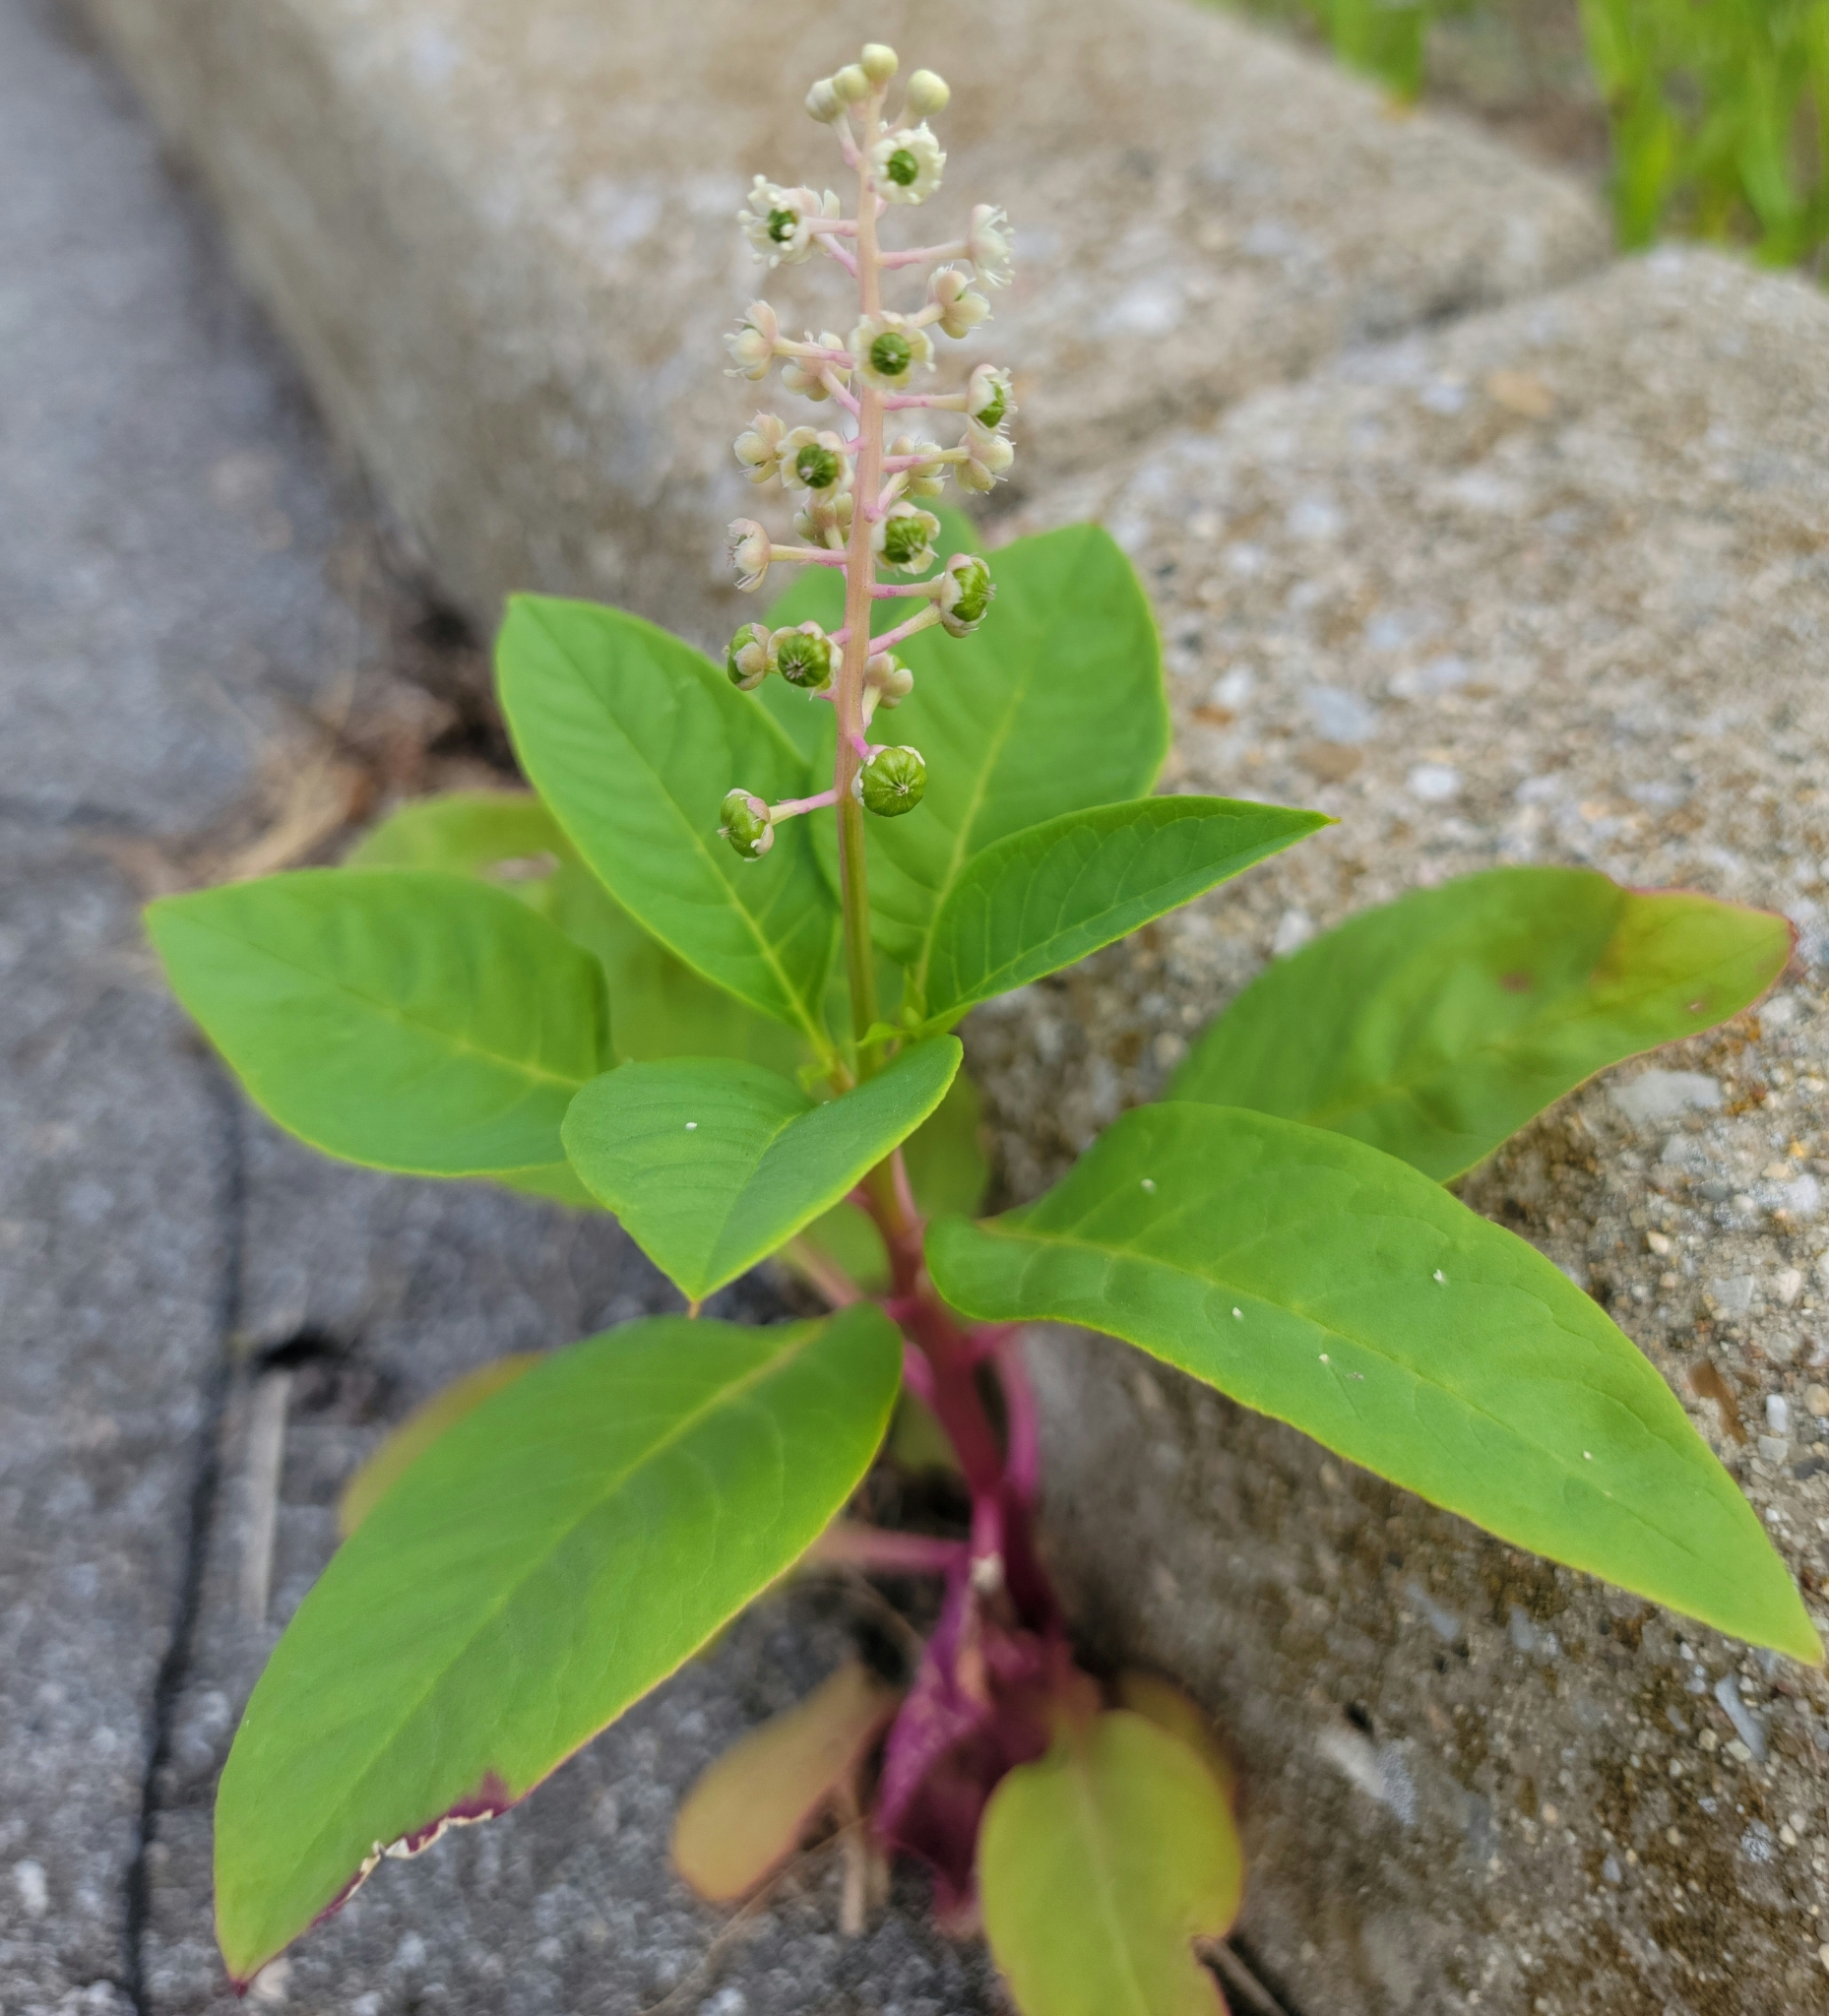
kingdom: Plantae
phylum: Tracheophyta
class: Magnoliopsida
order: Caryophyllales
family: Phytolaccaceae
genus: Phytolacca
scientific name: Phytolacca americana
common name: American pokeweed
